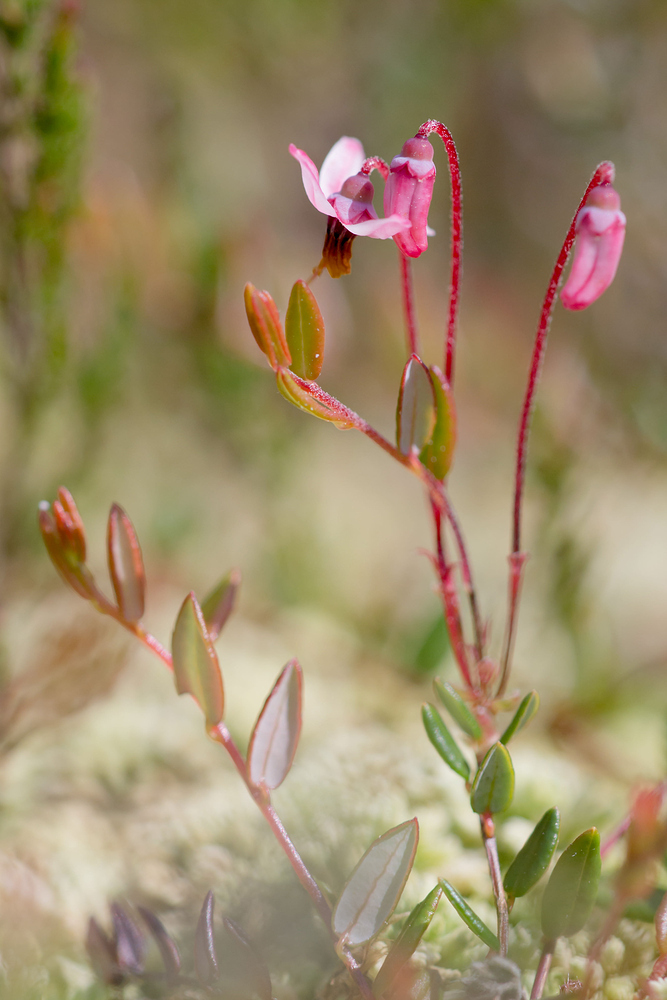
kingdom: Plantae
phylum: Tracheophyta
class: Magnoliopsida
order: Ericales
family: Ericaceae
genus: Vaccinium
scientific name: Vaccinium oxycoccos
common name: Cranberry
